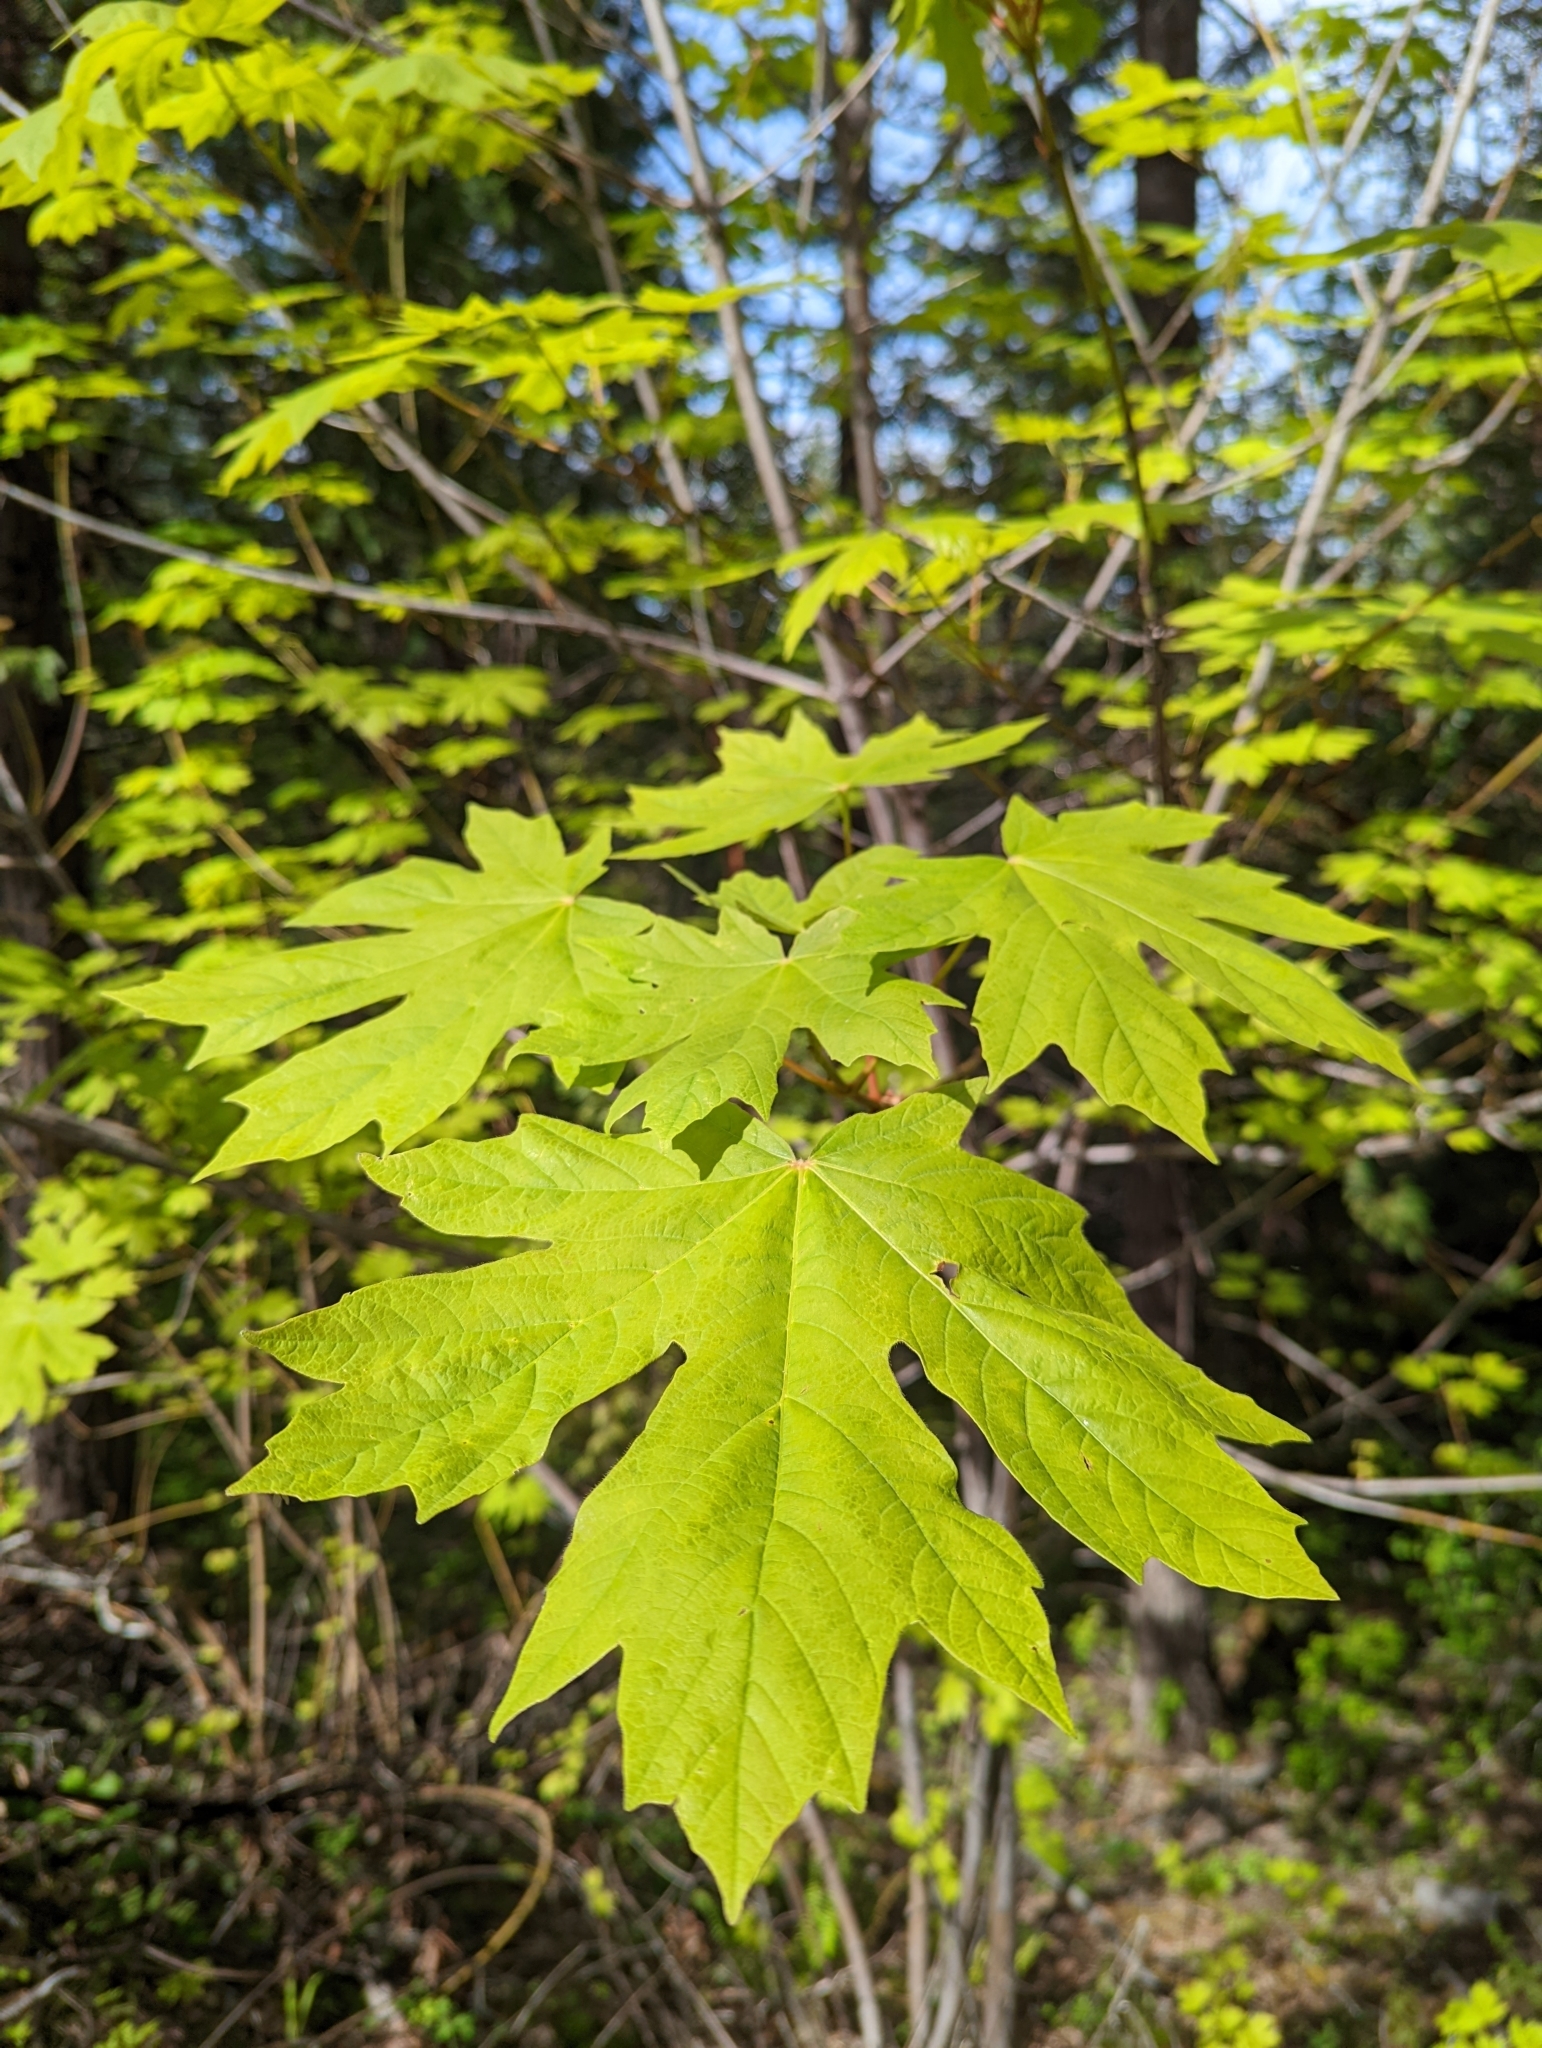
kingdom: Plantae
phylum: Tracheophyta
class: Magnoliopsida
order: Sapindales
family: Sapindaceae
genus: Acer
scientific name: Acer macrophyllum
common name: Oregon maple
